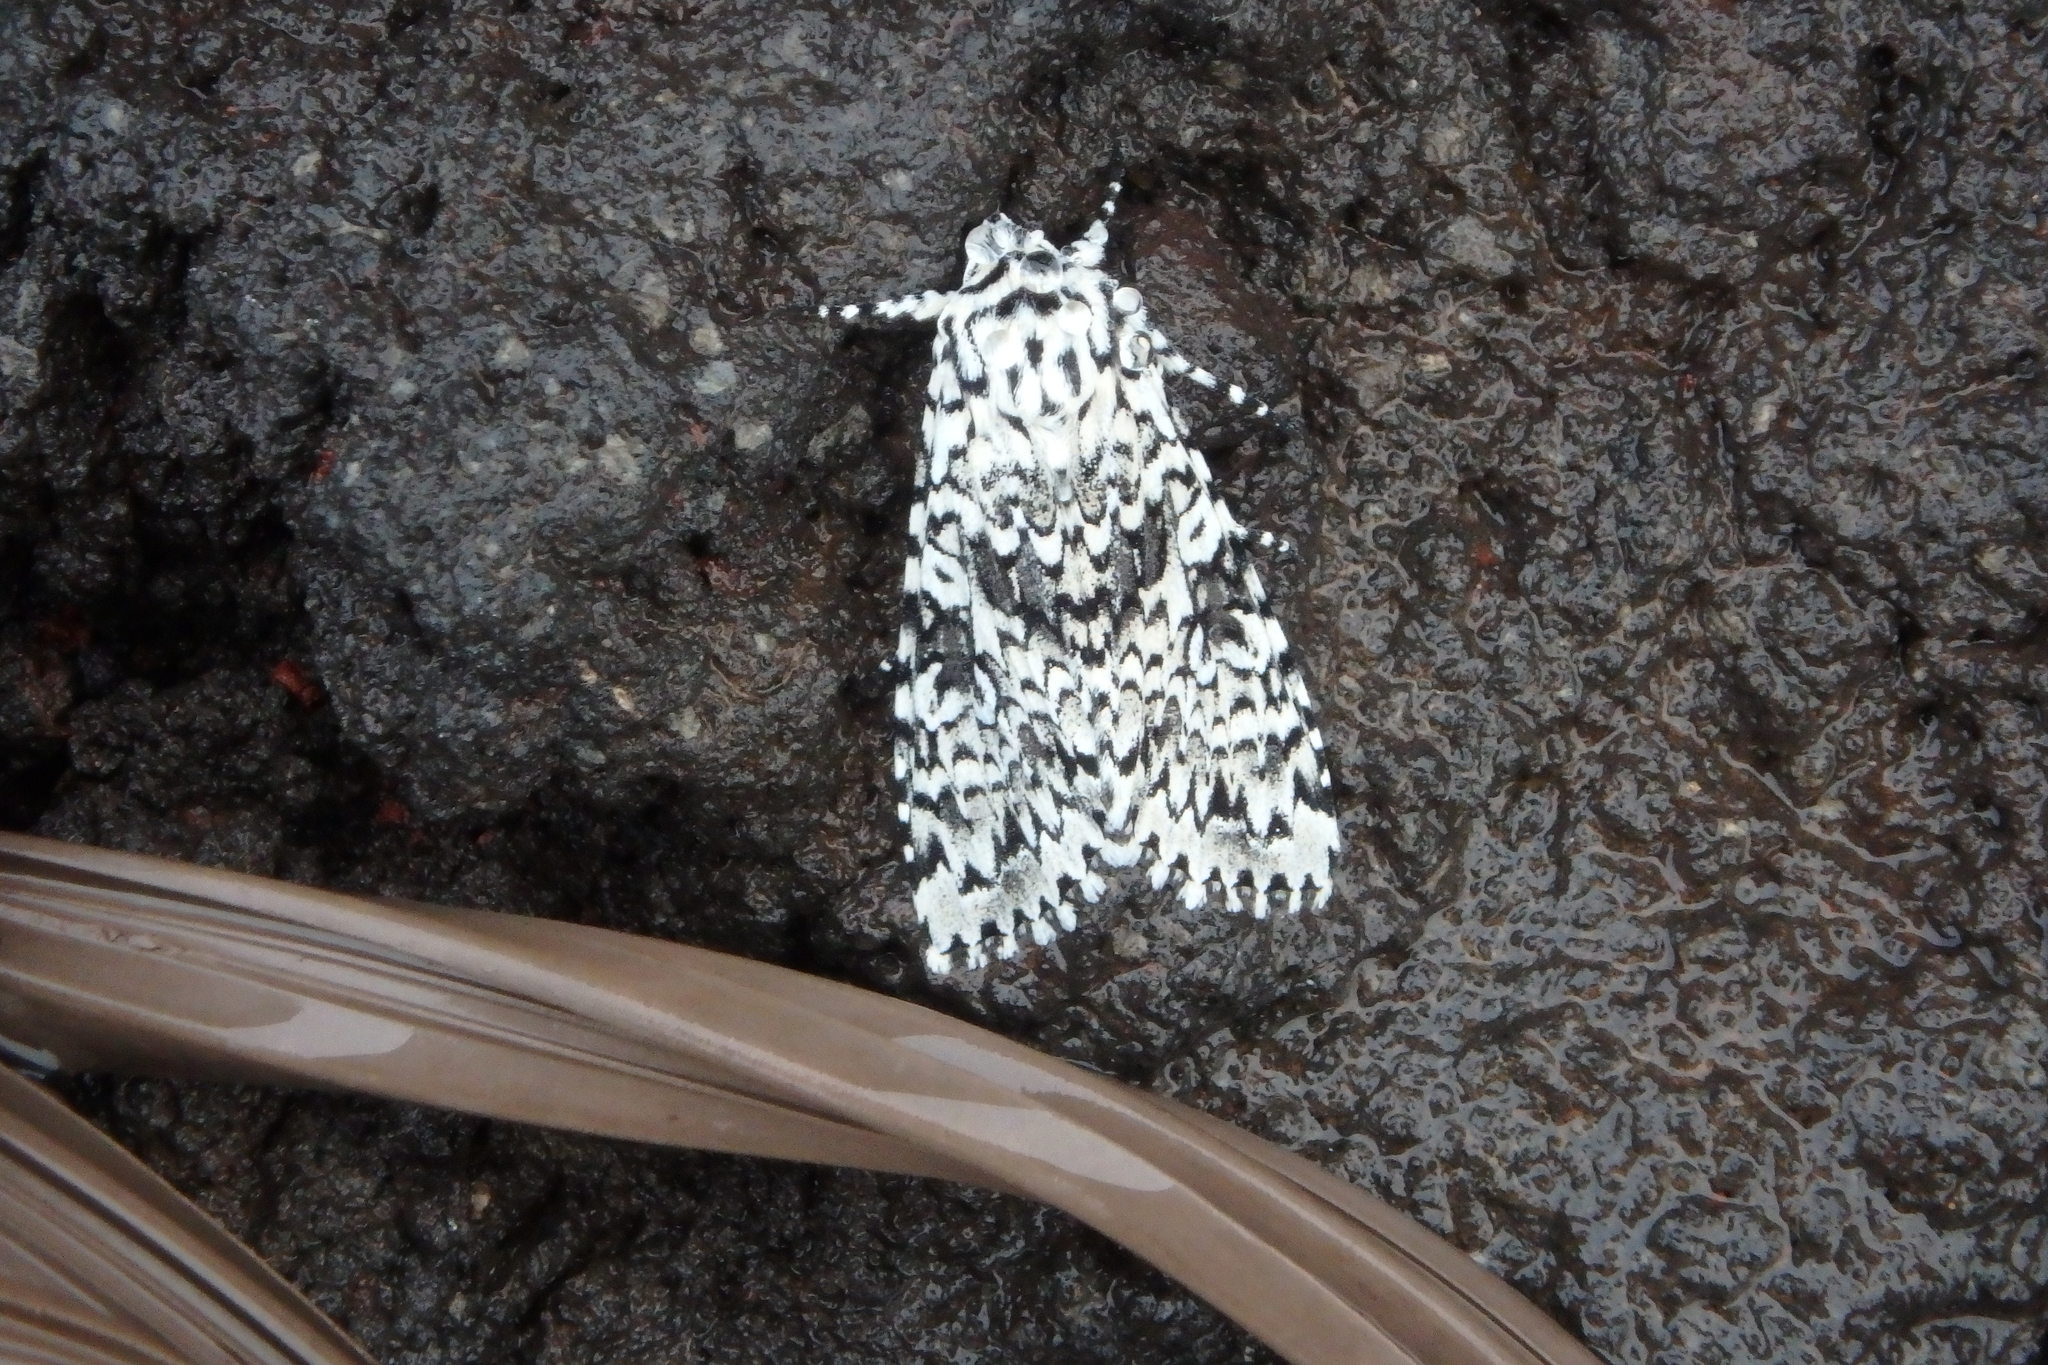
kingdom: Animalia
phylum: Arthropoda
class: Insecta
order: Lepidoptera
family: Noctuidae
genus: Polia
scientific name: Polia goliath
